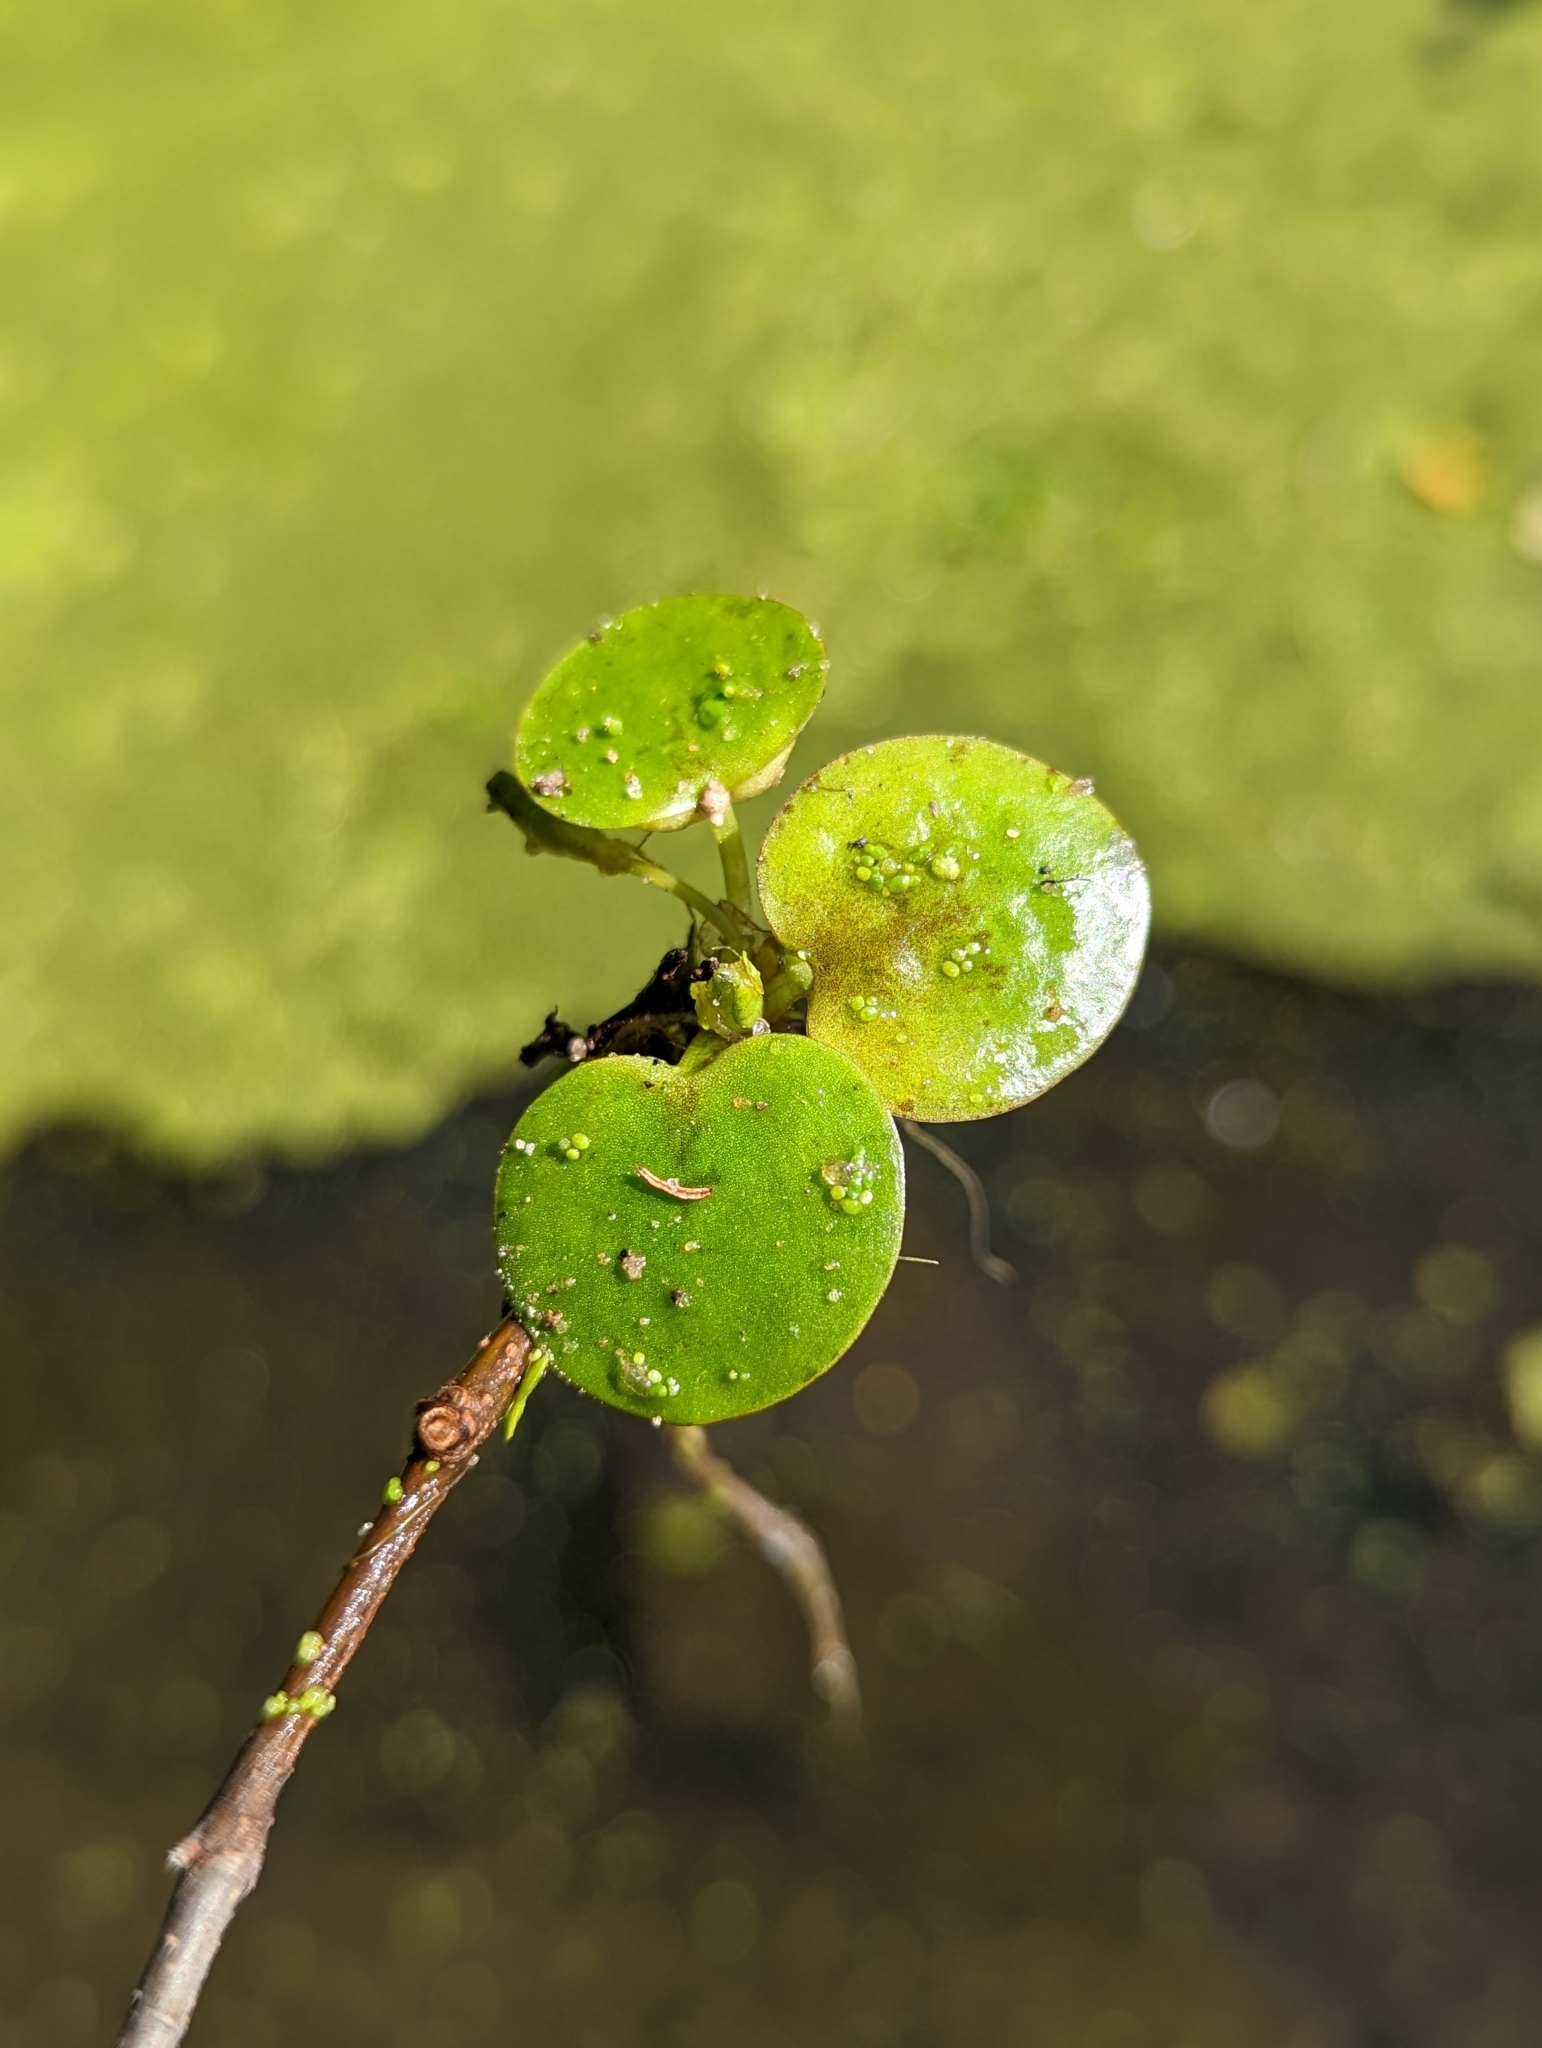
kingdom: Plantae
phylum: Tracheophyta
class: Liliopsida
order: Alismatales
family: Hydrocharitaceae
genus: Hydrocharis
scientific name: Hydrocharis laevigata
